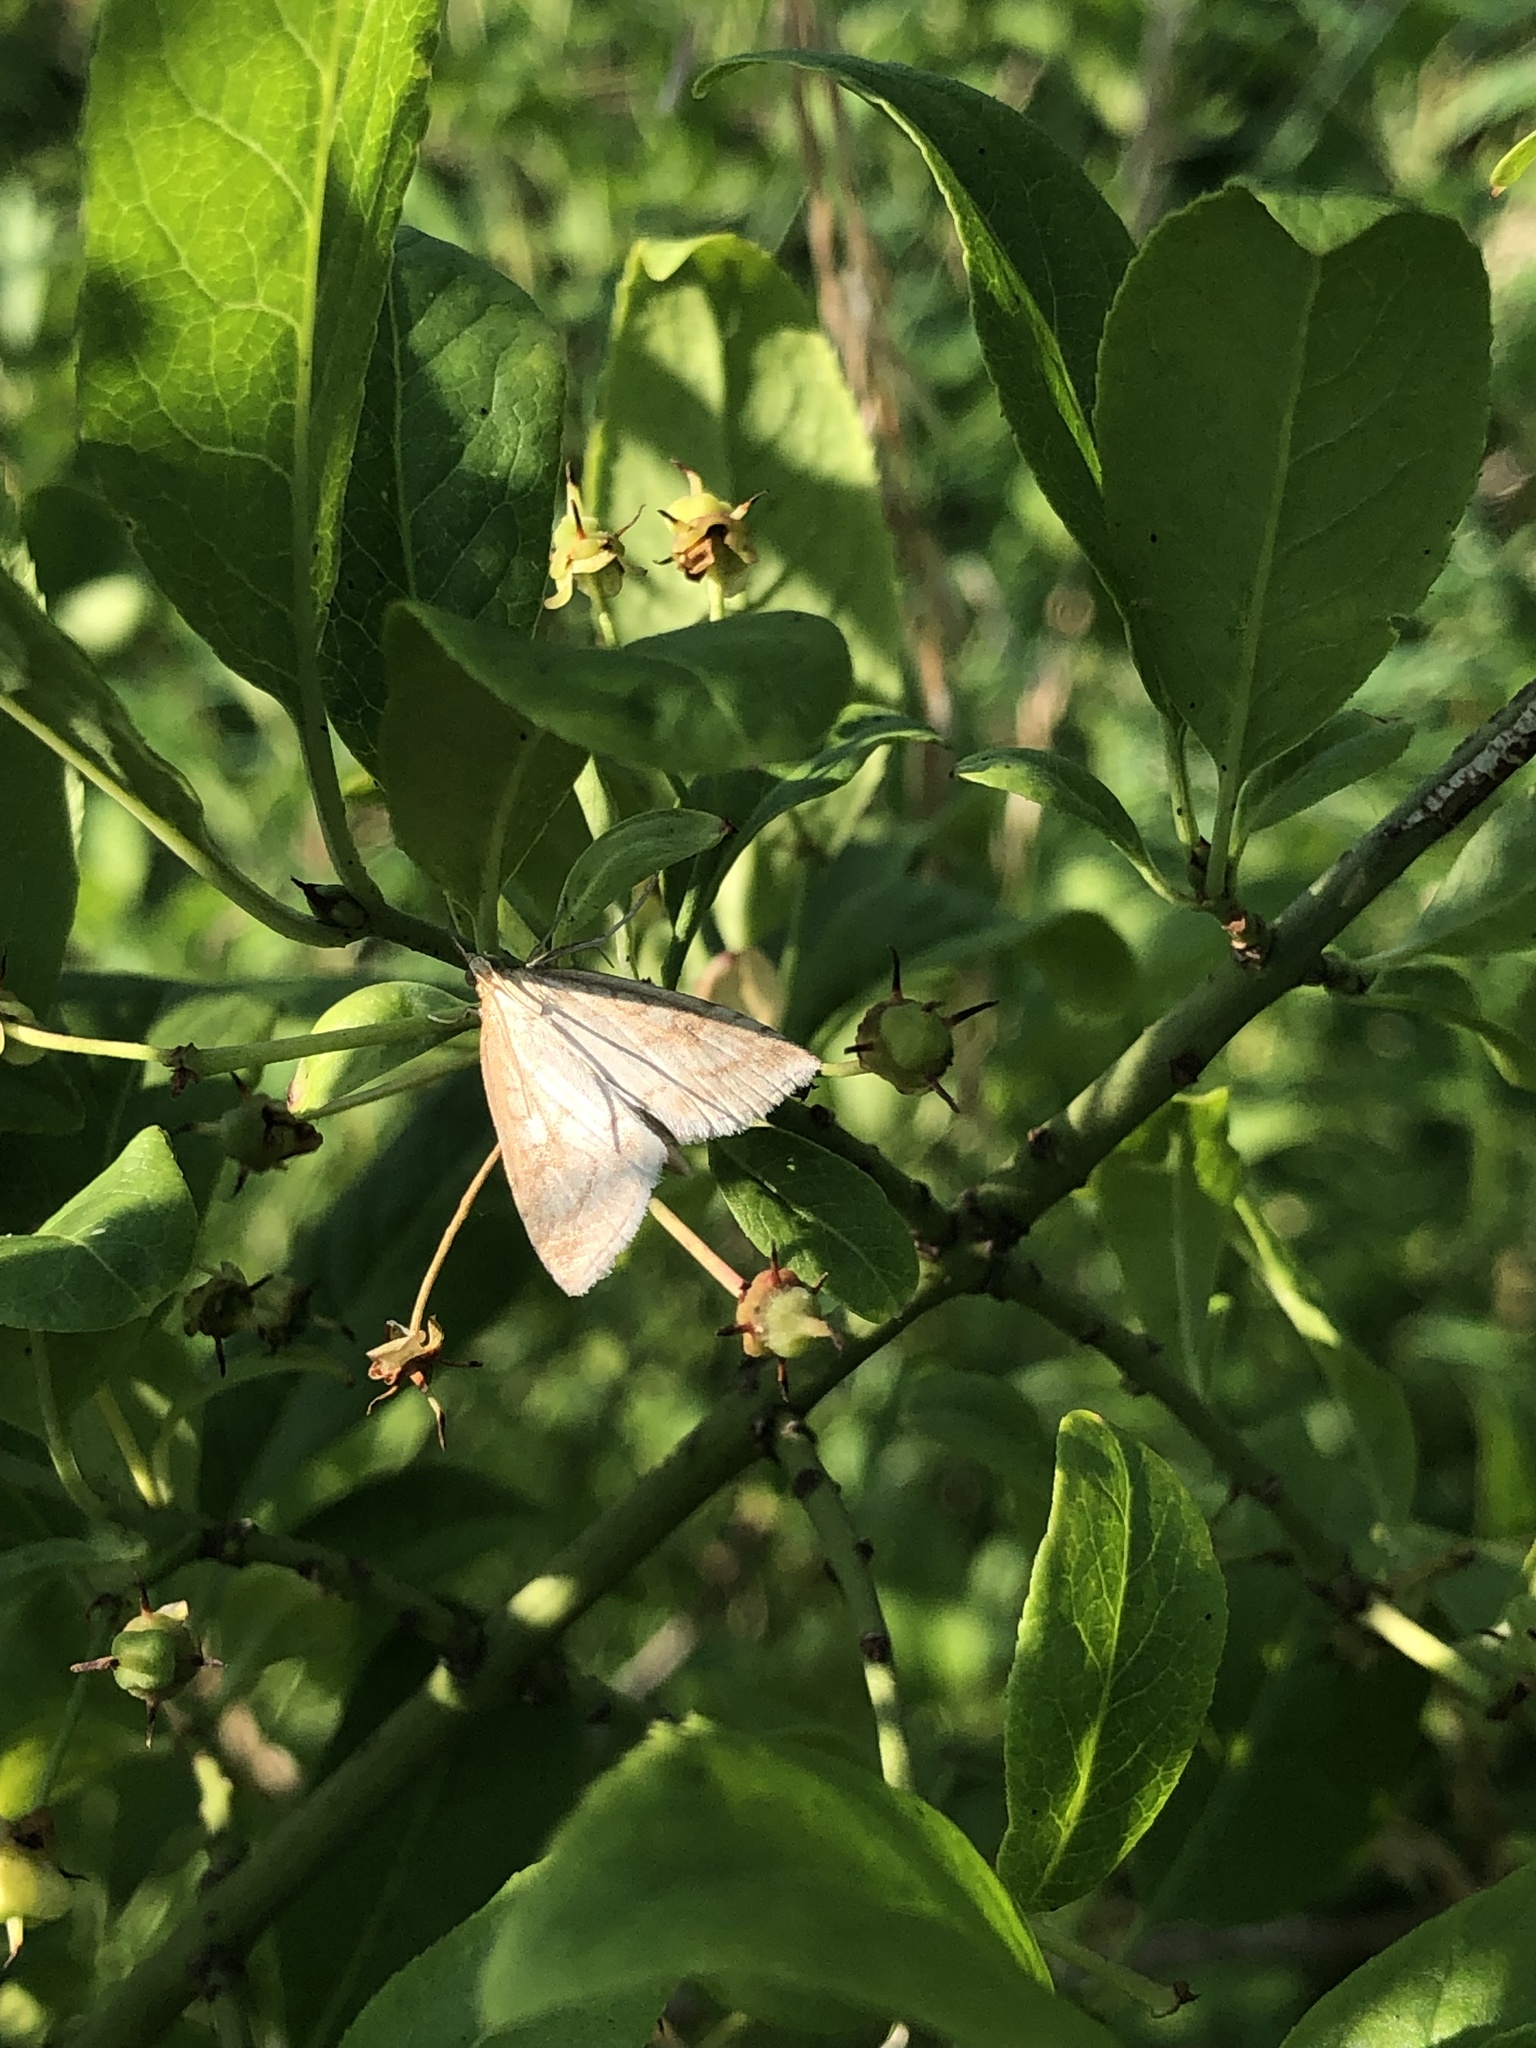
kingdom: Animalia
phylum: Arthropoda
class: Insecta
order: Lepidoptera
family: Crambidae
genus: Udea
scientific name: Udea lutealis
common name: Pale straw pearl
